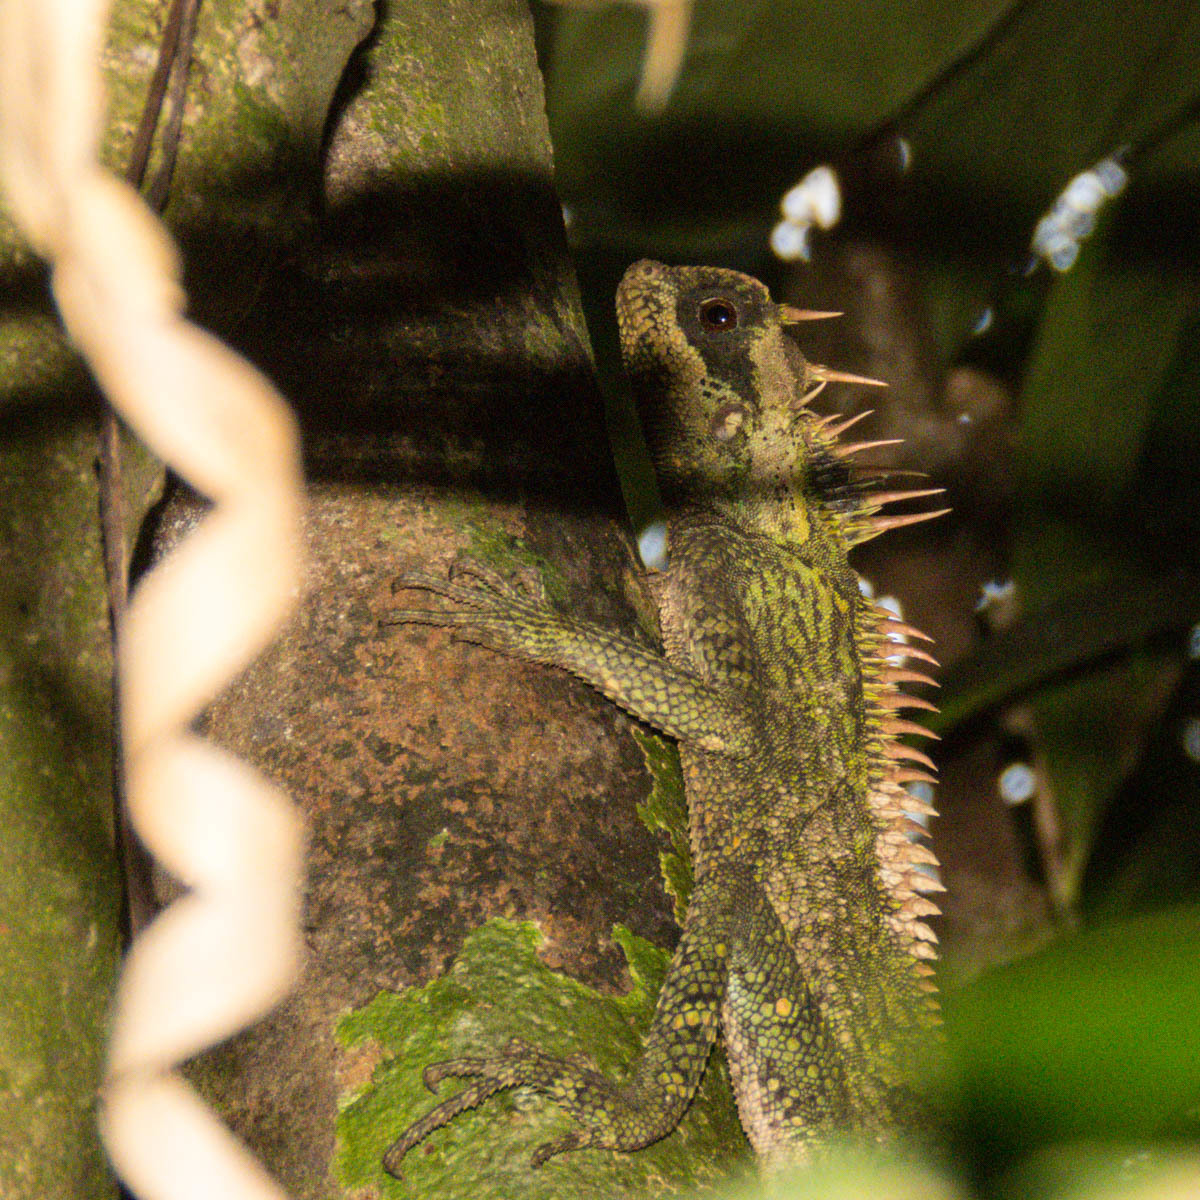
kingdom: Animalia
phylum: Chordata
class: Squamata
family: Agamidae
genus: Acanthosaura
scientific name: Acanthosaura cardamomensis
